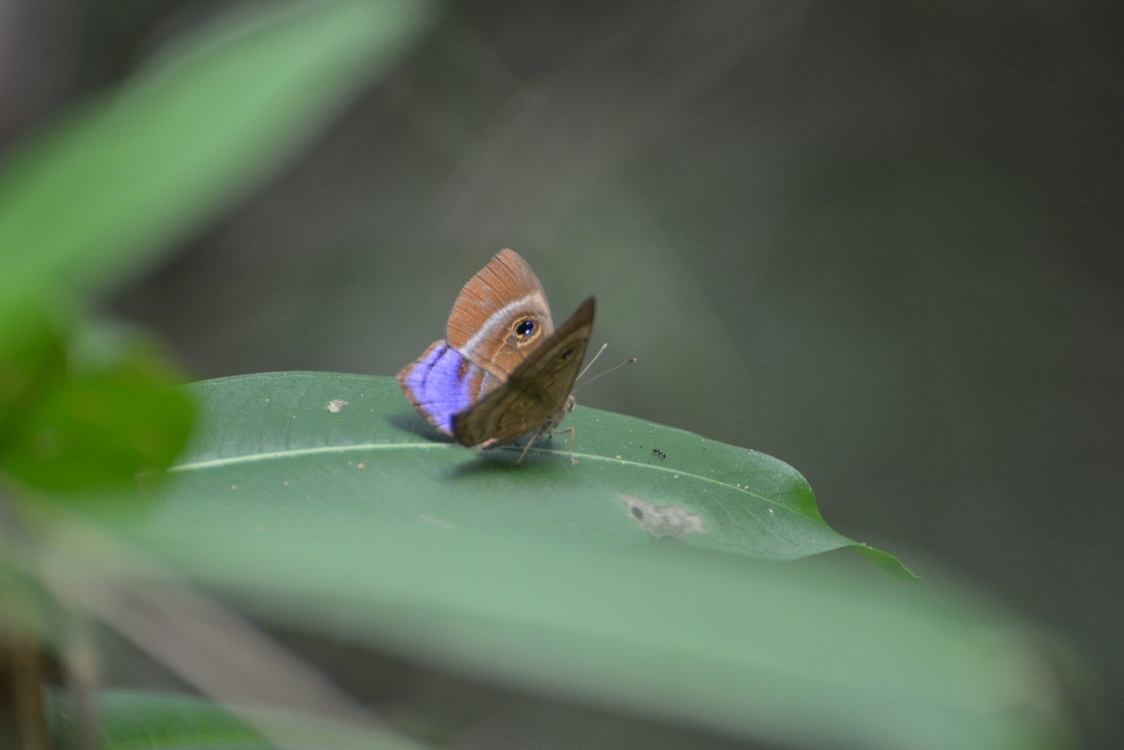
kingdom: Animalia
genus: Mesosemia
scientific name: Mesosemia lamachus
